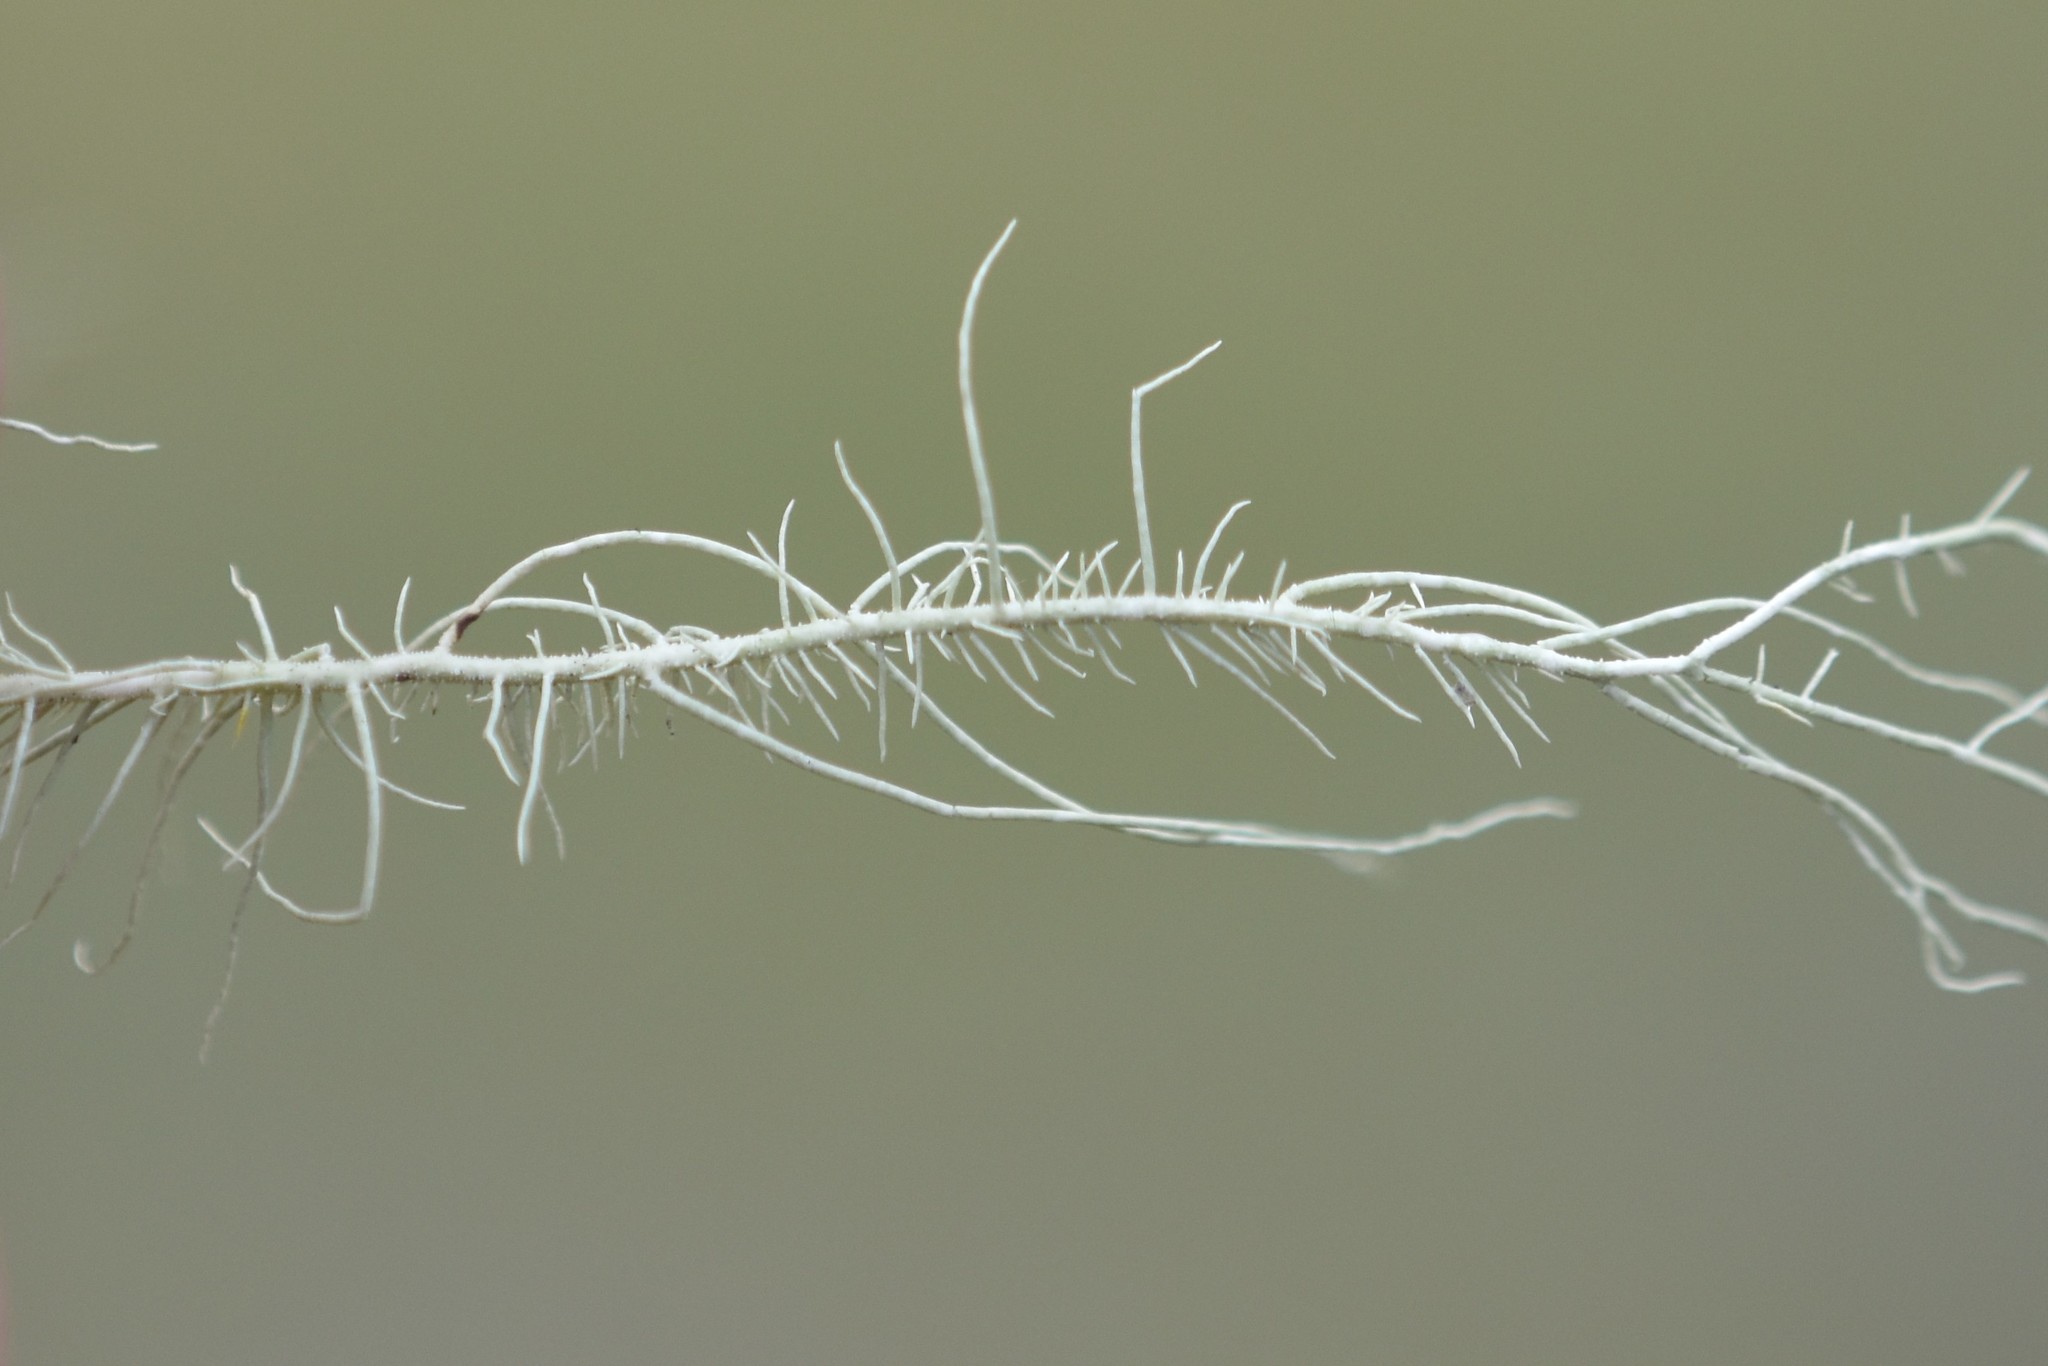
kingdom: Fungi
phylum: Ascomycota
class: Lecanoromycetes
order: Lecanorales
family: Parmeliaceae
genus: Usnea
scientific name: Usnea dasopoga
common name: Fishbone beard lichen
